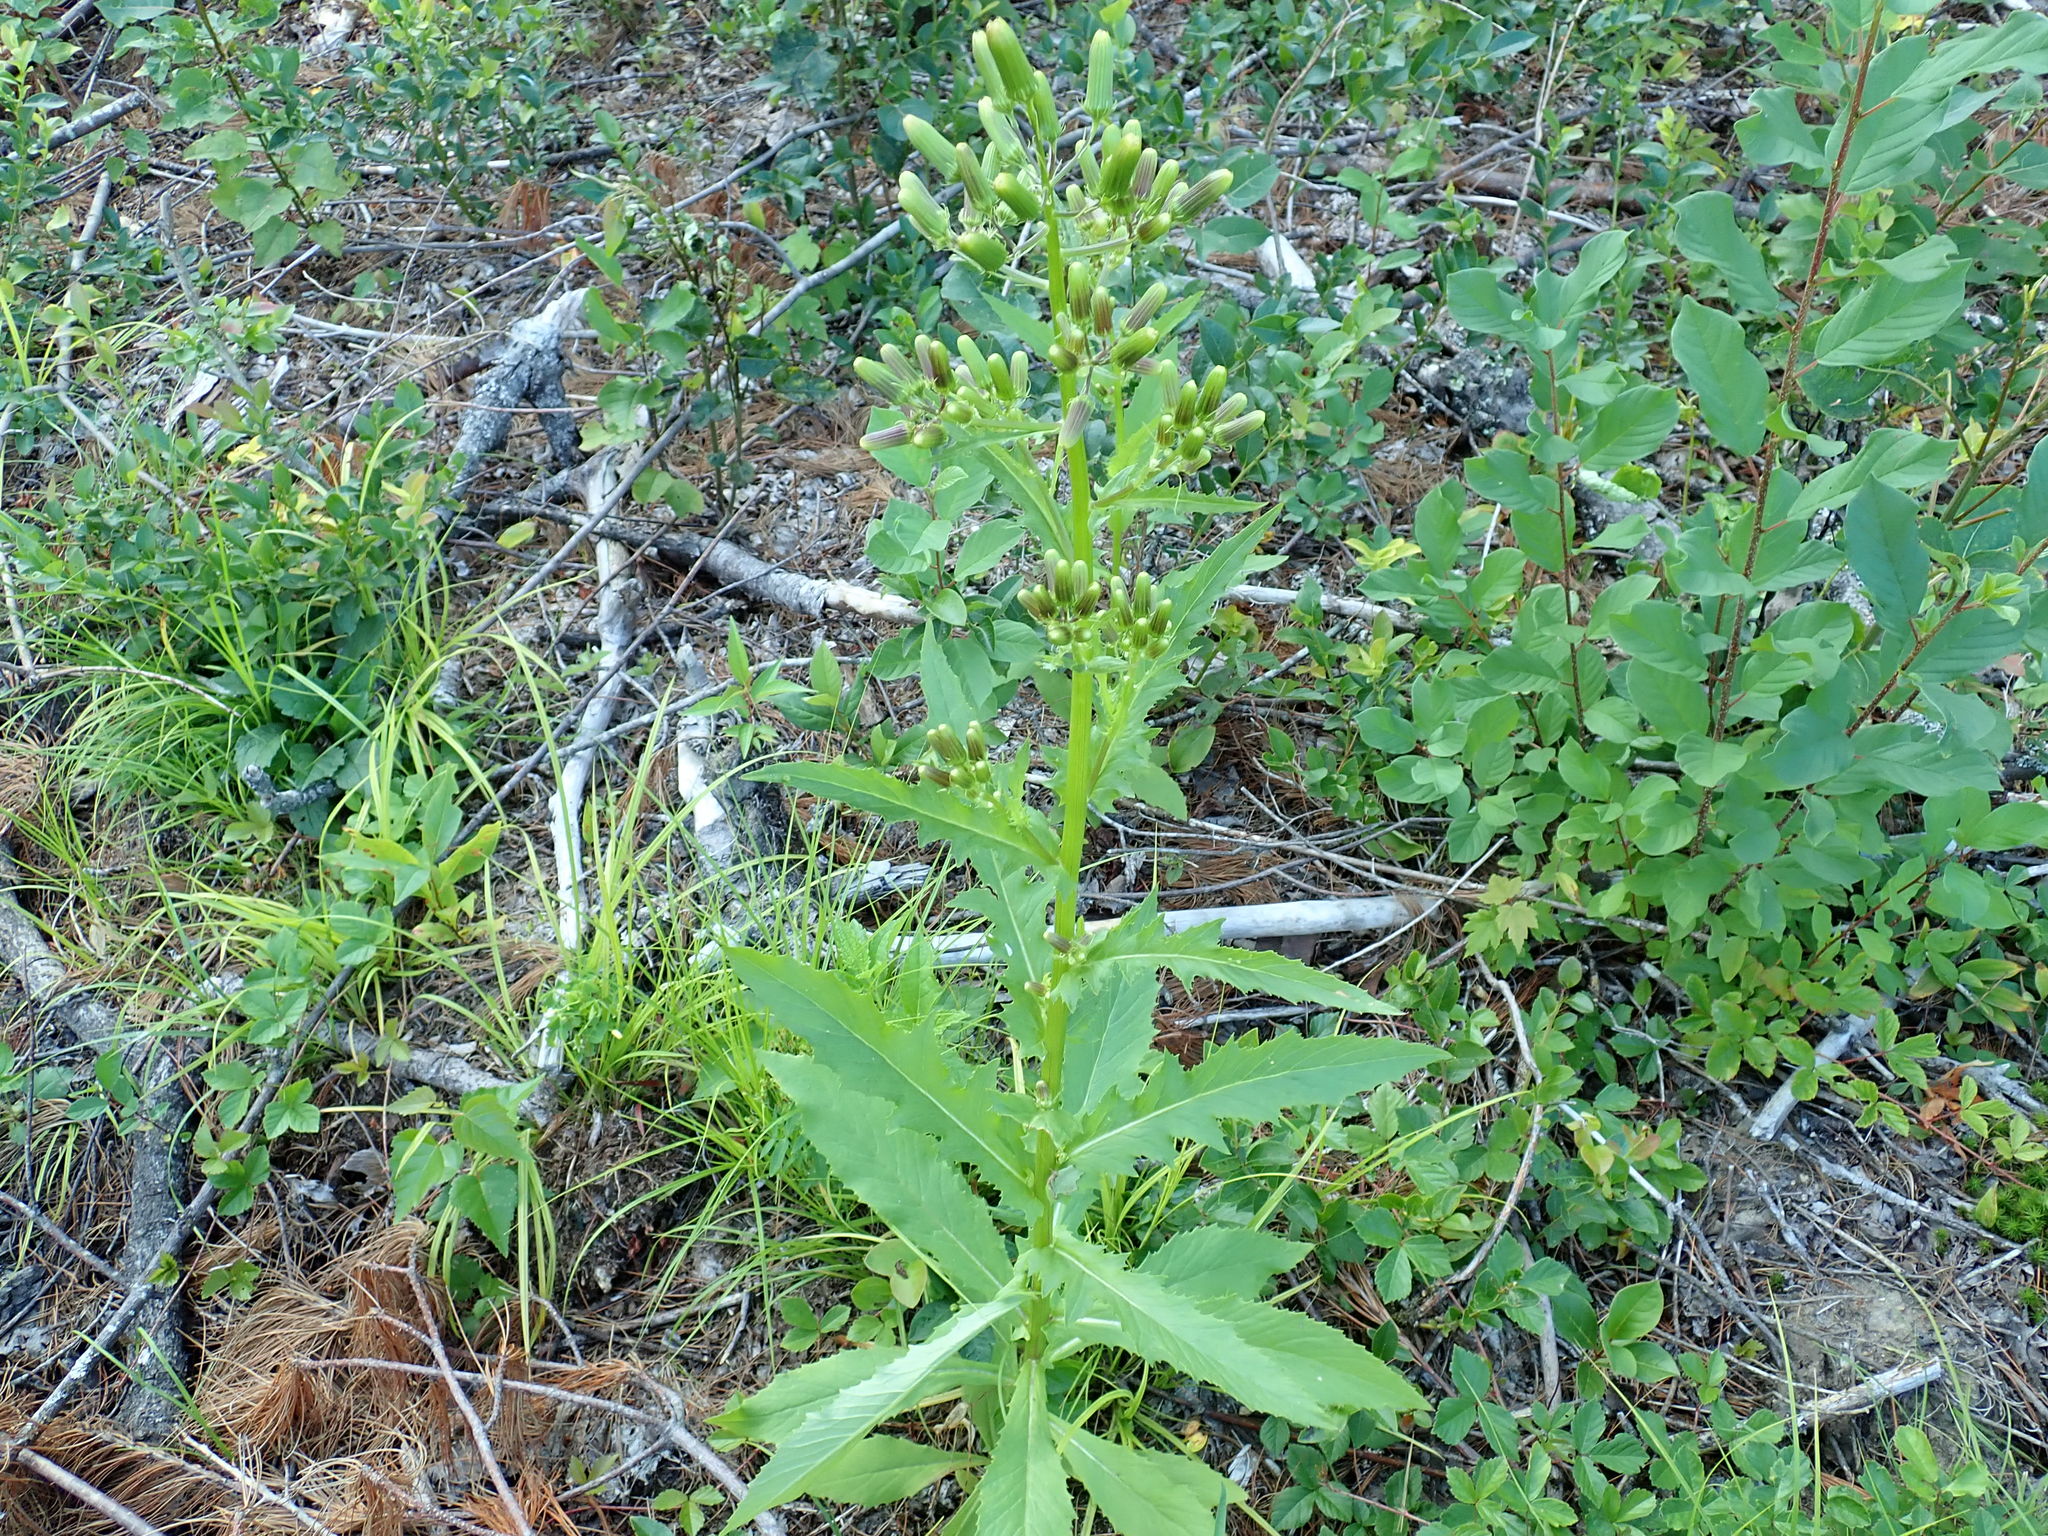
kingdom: Plantae
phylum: Tracheophyta
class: Magnoliopsida
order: Asterales
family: Asteraceae
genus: Erechtites
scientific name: Erechtites hieraciifolius
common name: American burnweed
